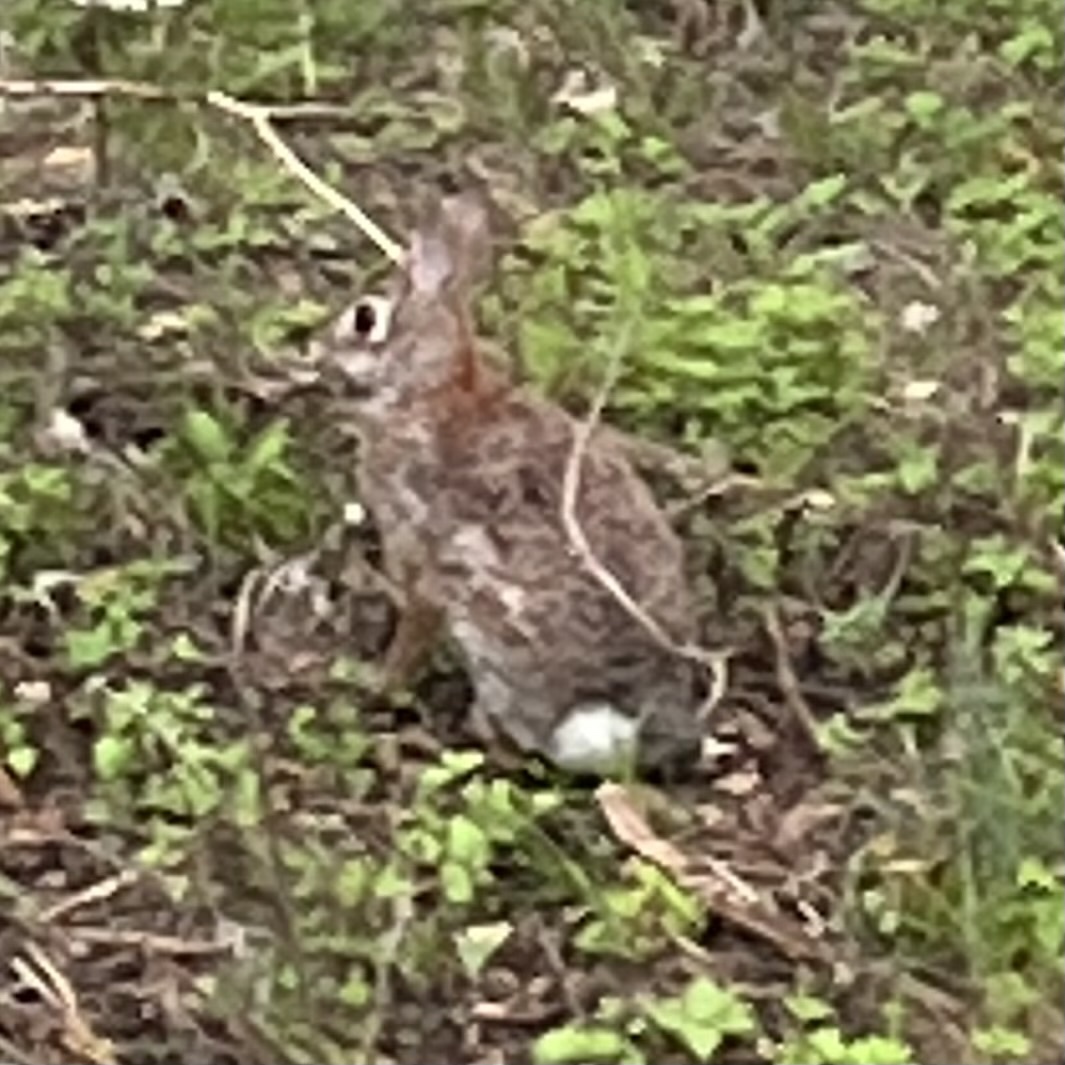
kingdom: Animalia
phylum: Chordata
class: Mammalia
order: Lagomorpha
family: Leporidae
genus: Sylvilagus
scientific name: Sylvilagus floridanus
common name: Eastern cottontail
